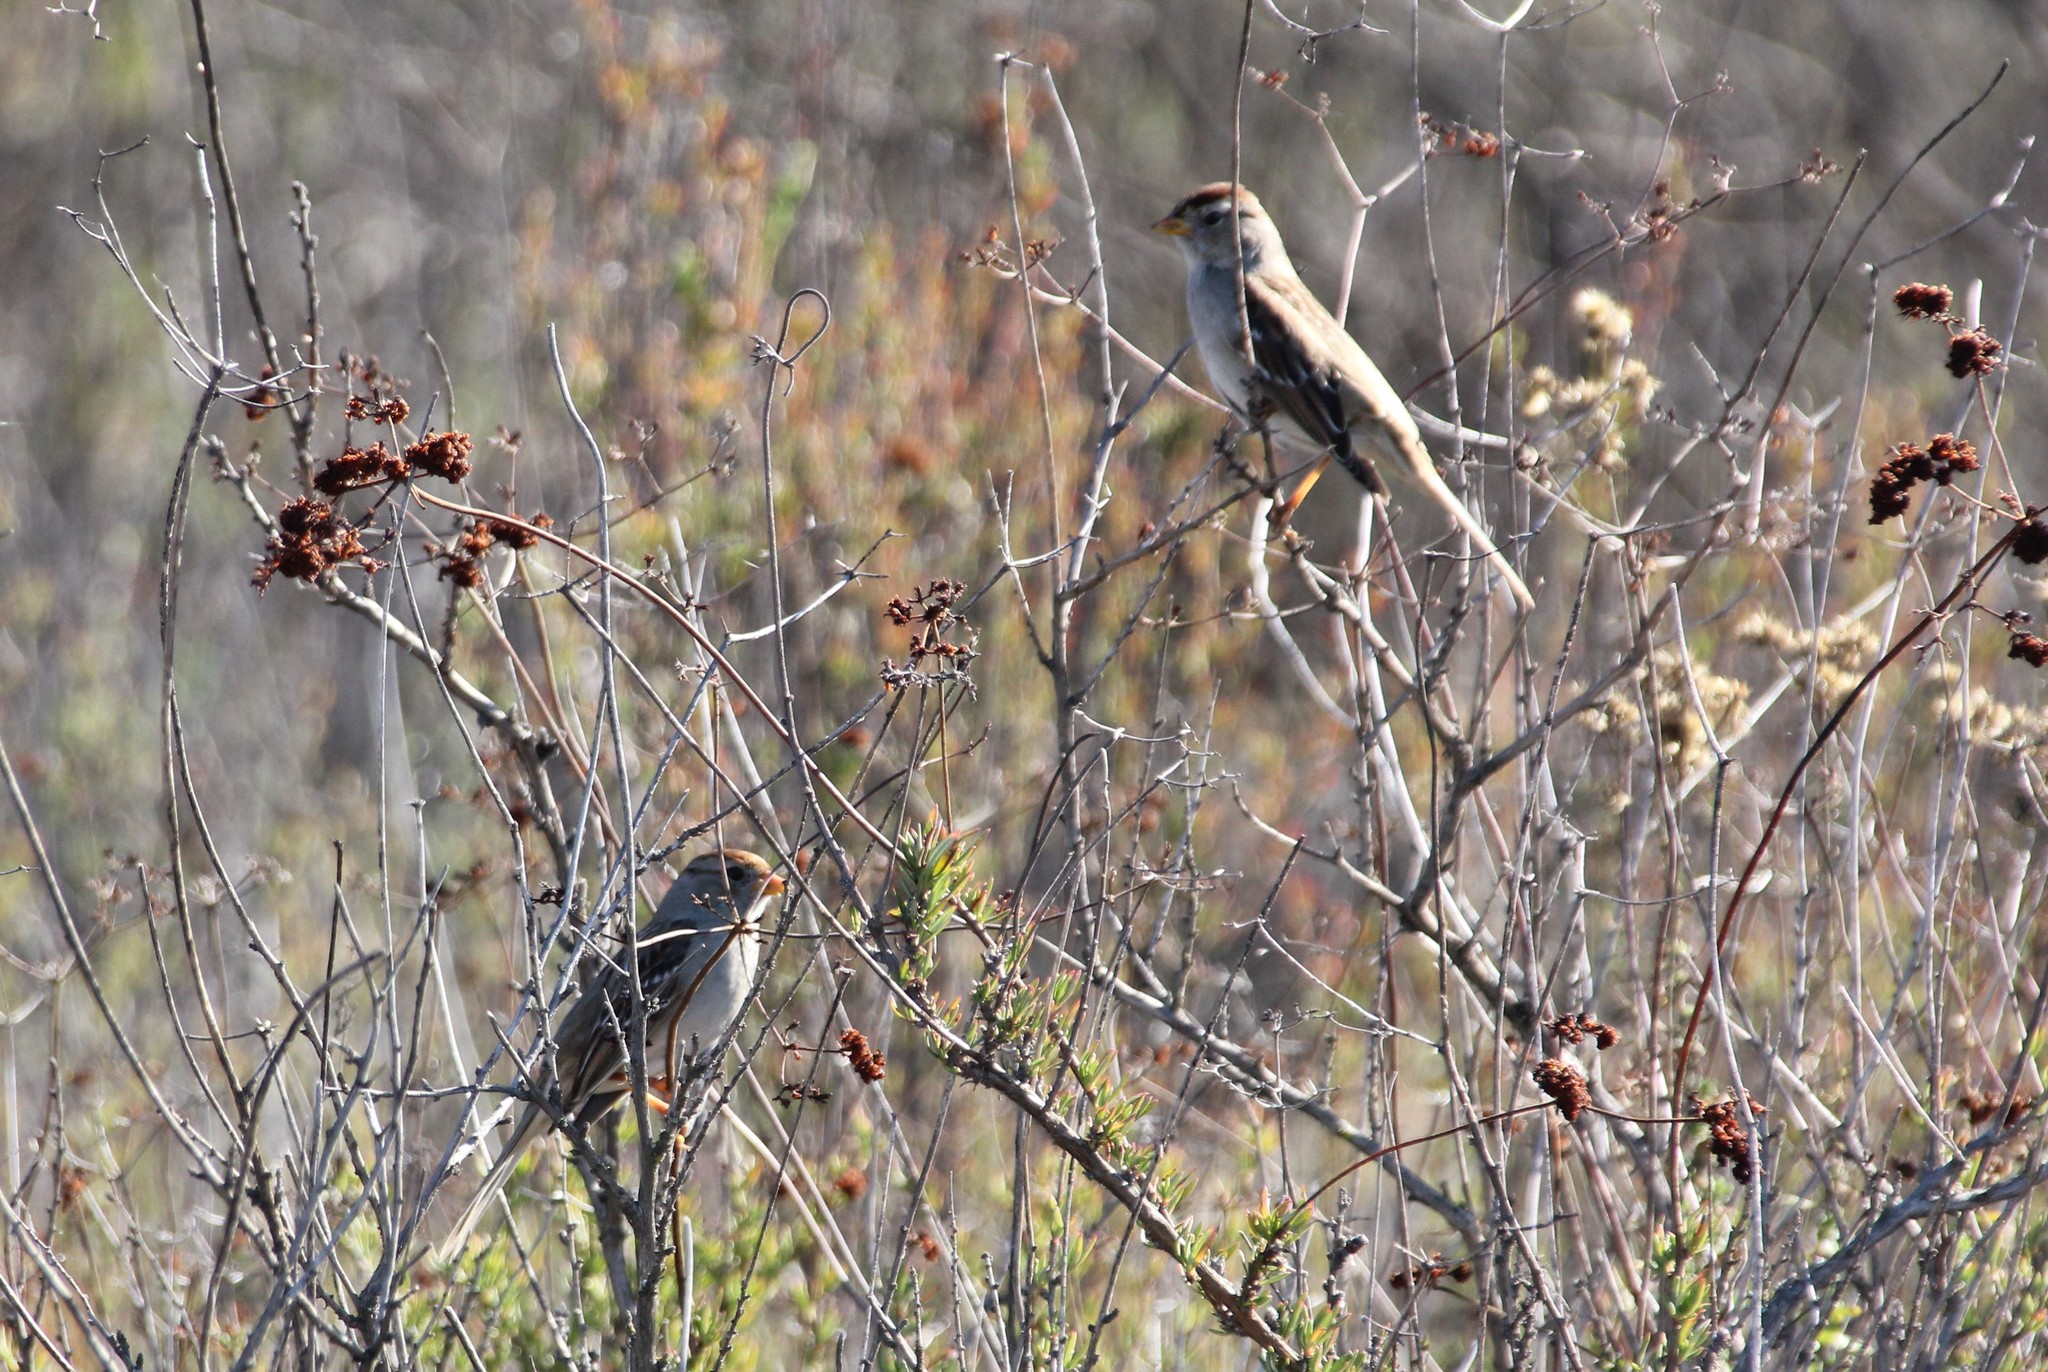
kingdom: Animalia
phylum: Chordata
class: Aves
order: Passeriformes
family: Passerellidae
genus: Zonotrichia
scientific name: Zonotrichia leucophrys
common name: White-crowned sparrow
